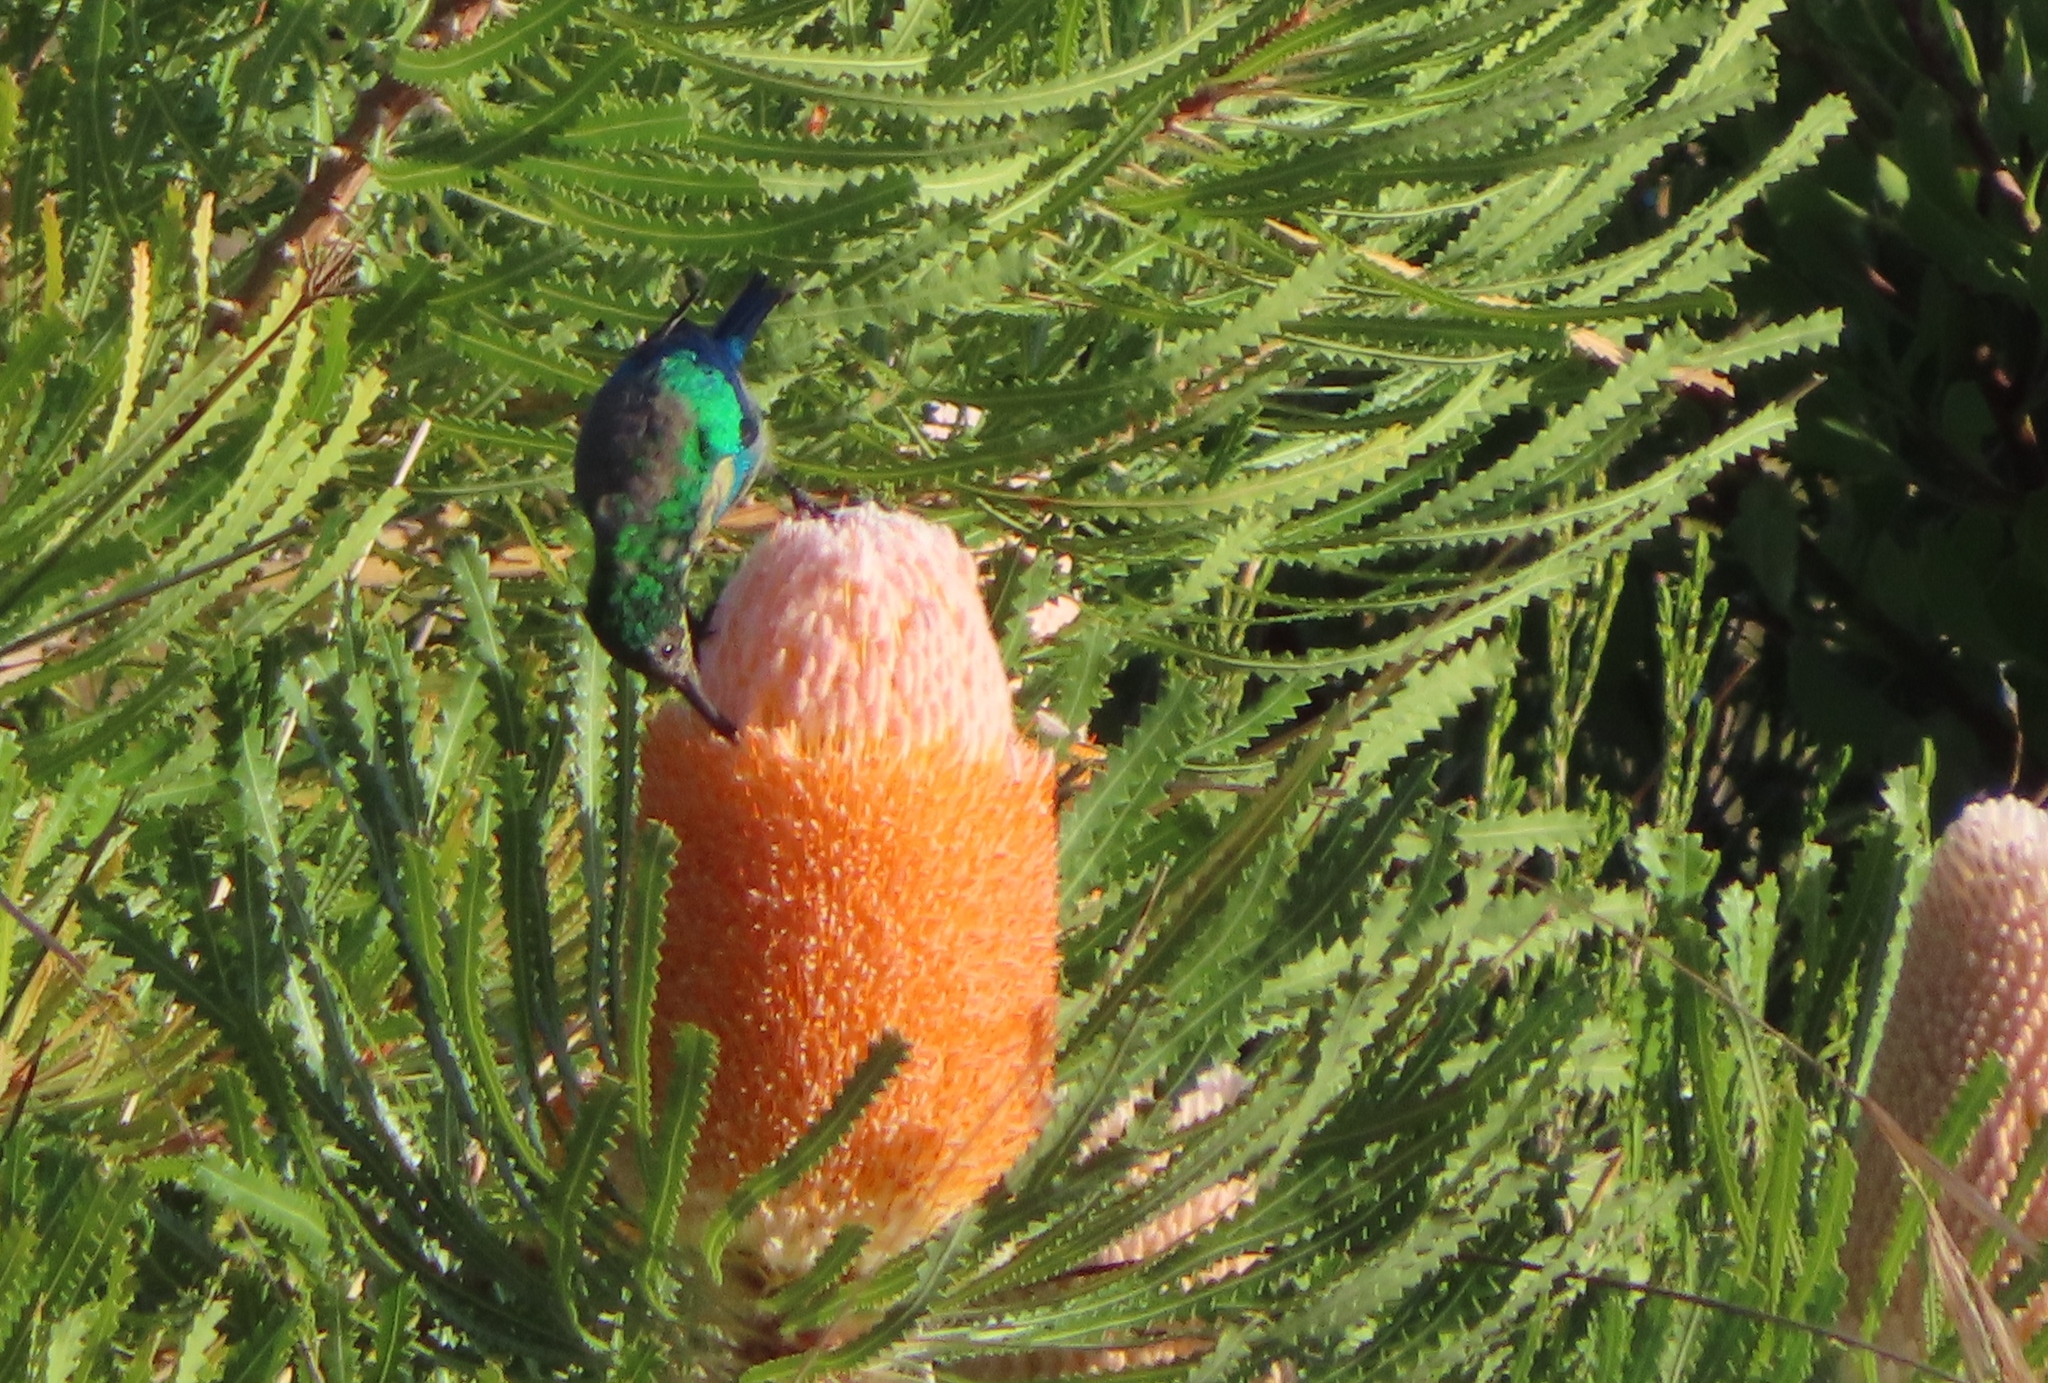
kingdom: Animalia
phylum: Chordata
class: Aves
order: Passeriformes
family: Nectariniidae
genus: Nectarinia
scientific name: Nectarinia famosa
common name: Malachite sunbird
